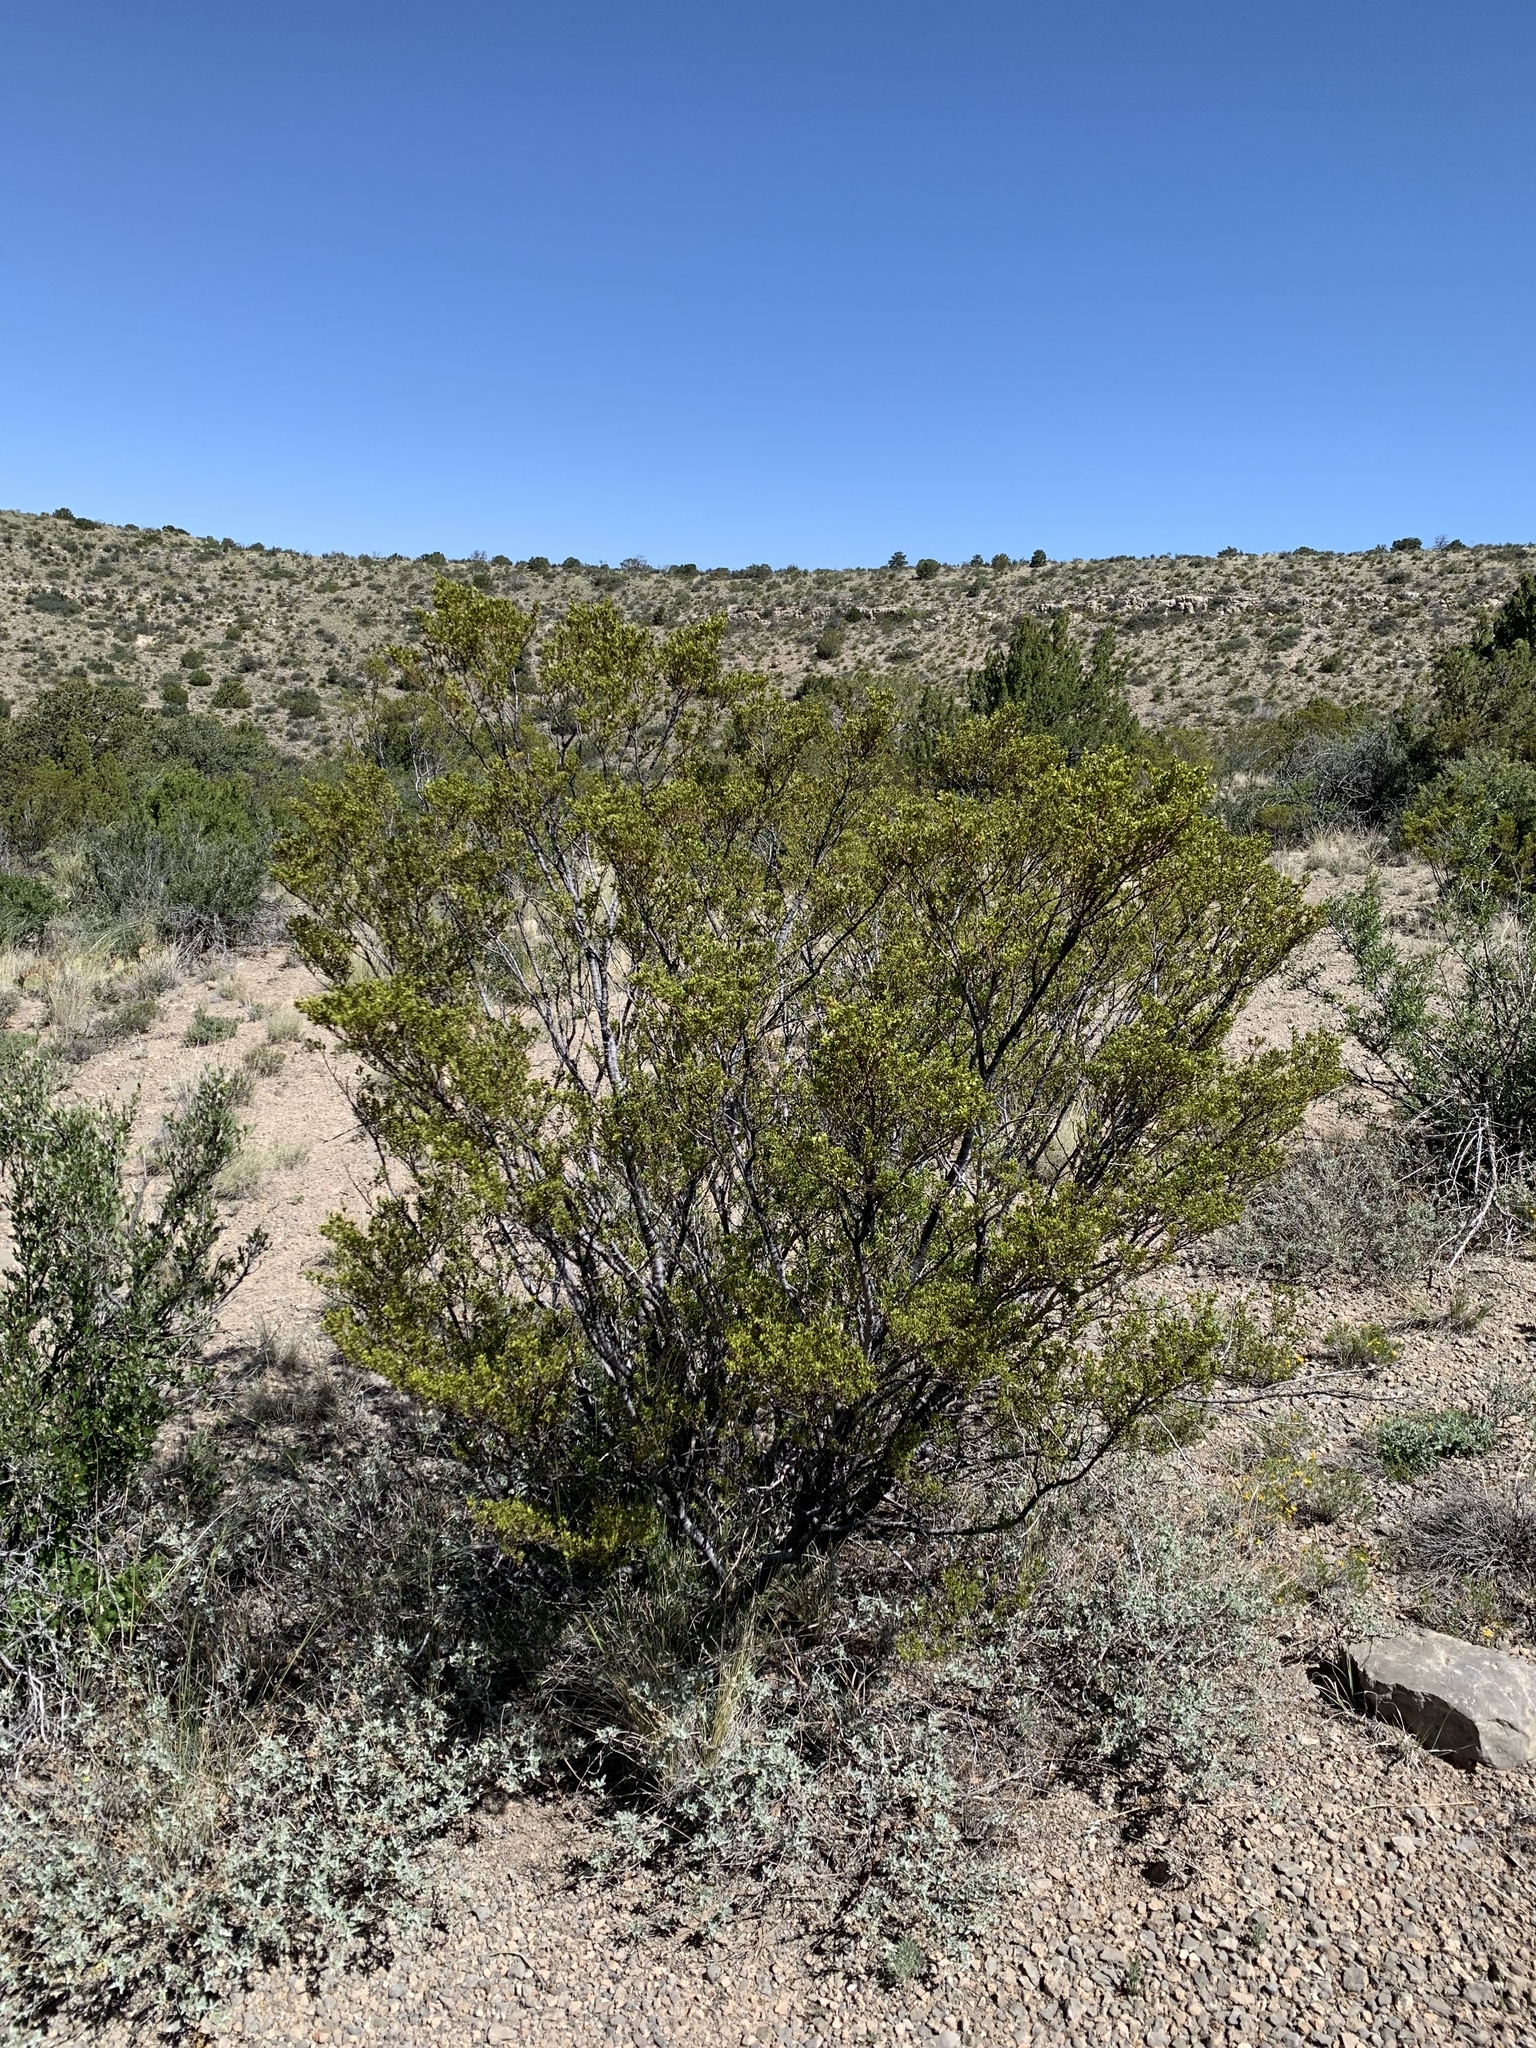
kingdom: Plantae
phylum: Tracheophyta
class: Magnoliopsida
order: Zygophyllales
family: Zygophyllaceae
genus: Larrea
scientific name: Larrea tridentata
